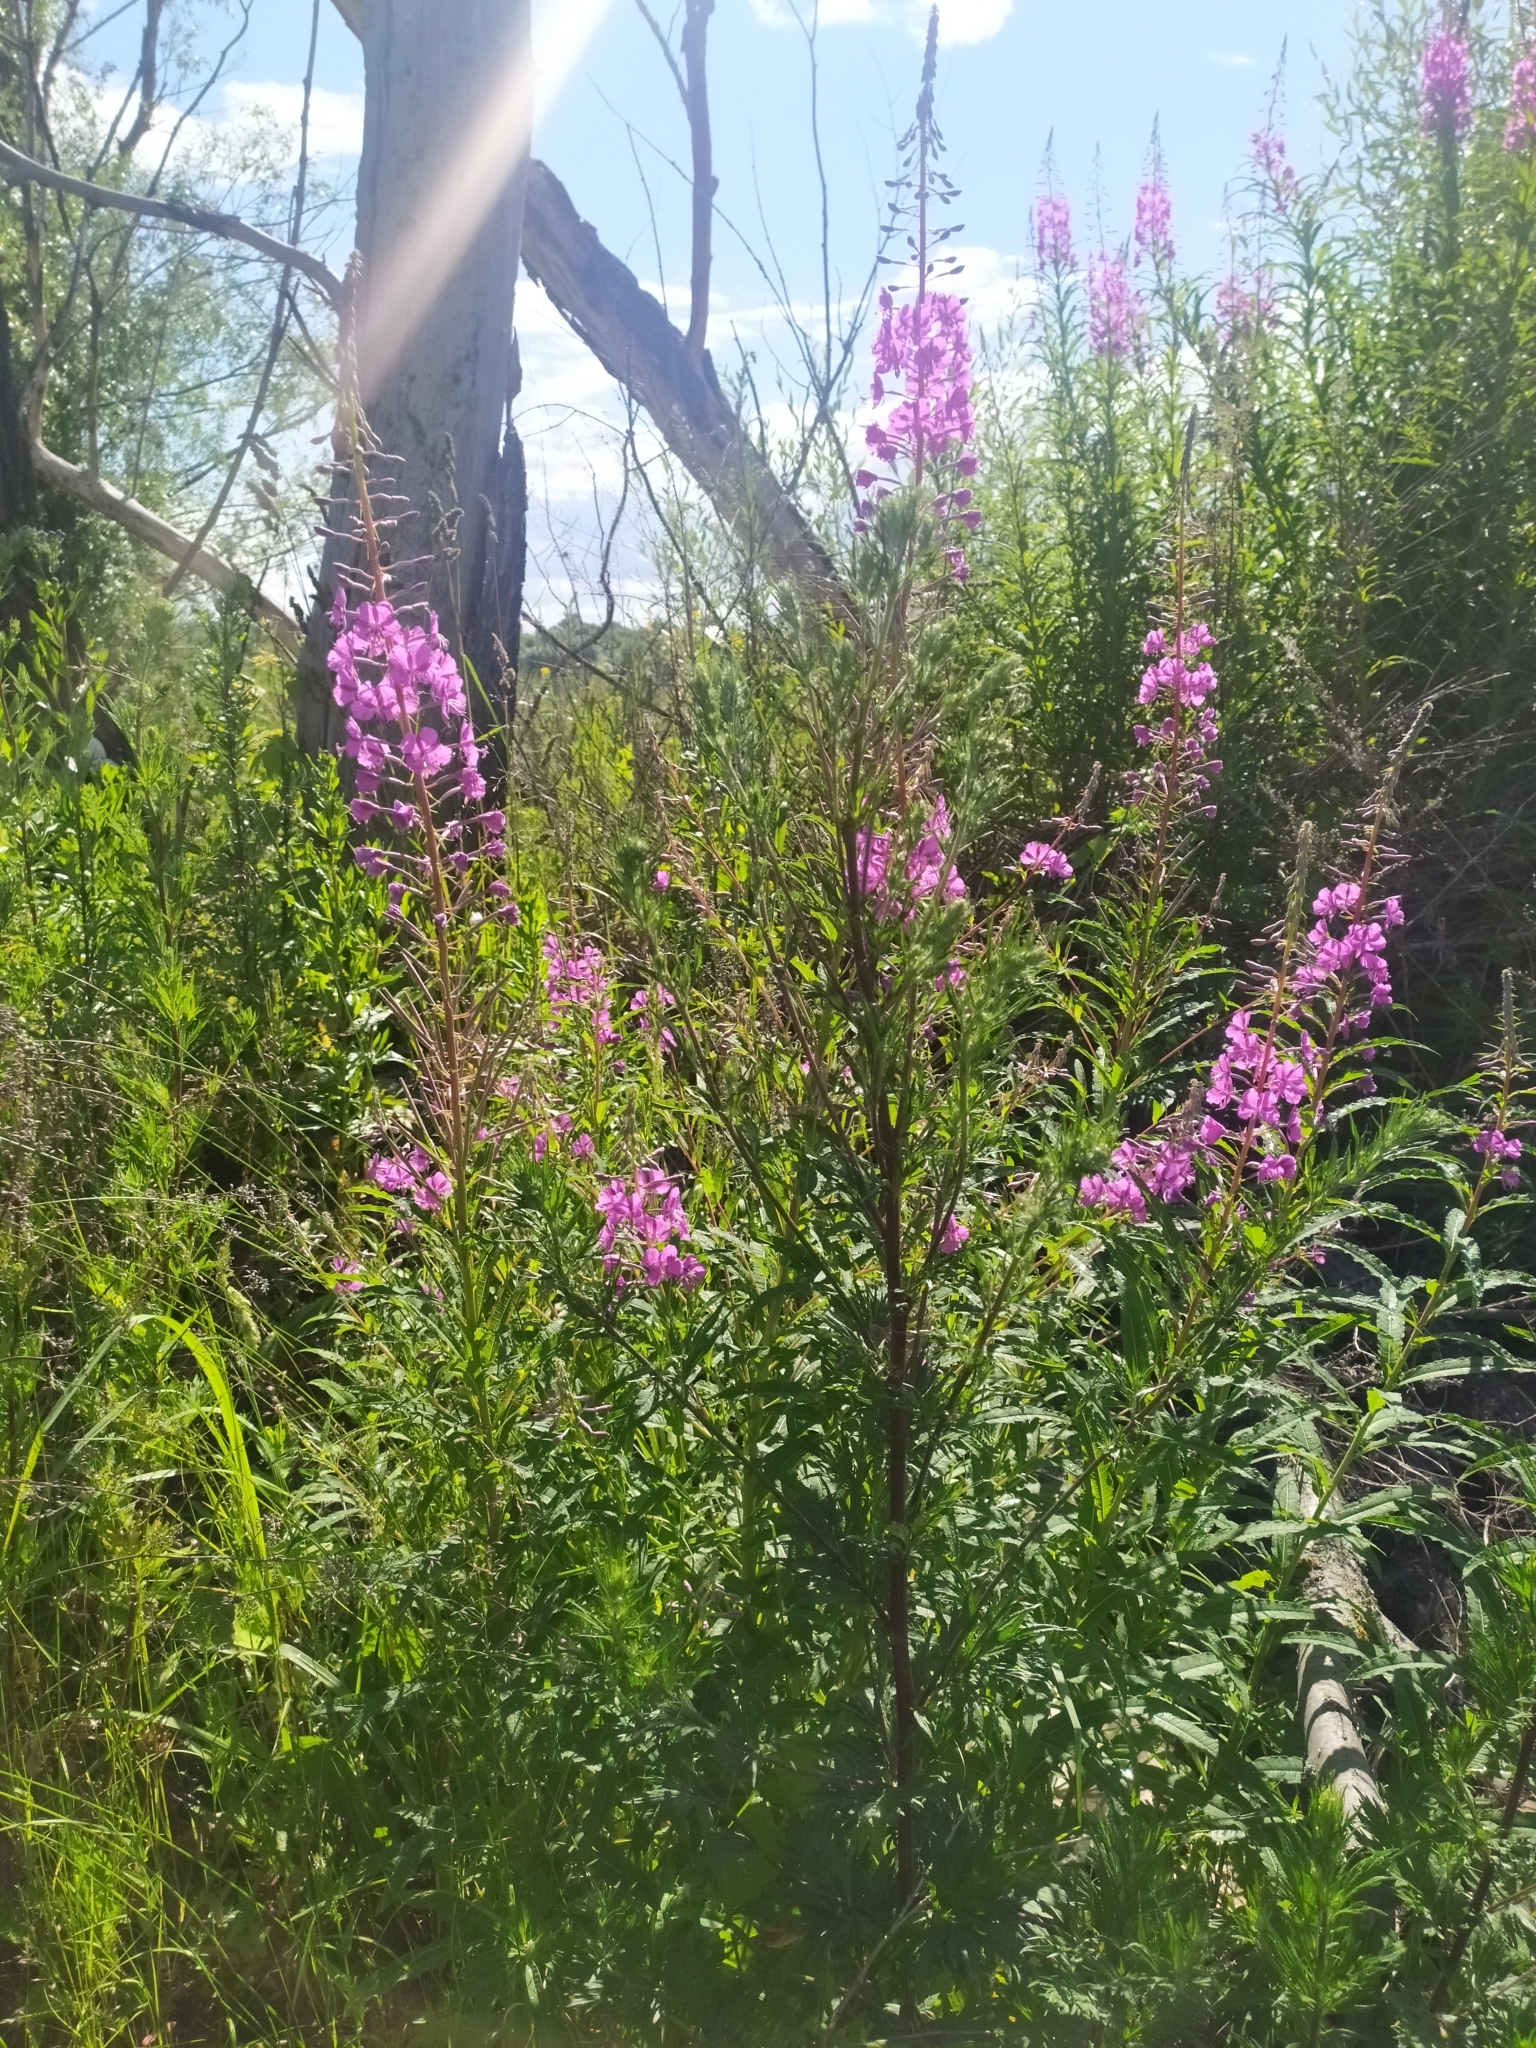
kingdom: Plantae
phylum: Tracheophyta
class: Magnoliopsida
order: Myrtales
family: Onagraceae
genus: Chamaenerion
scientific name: Chamaenerion angustifolium
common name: Fireweed
